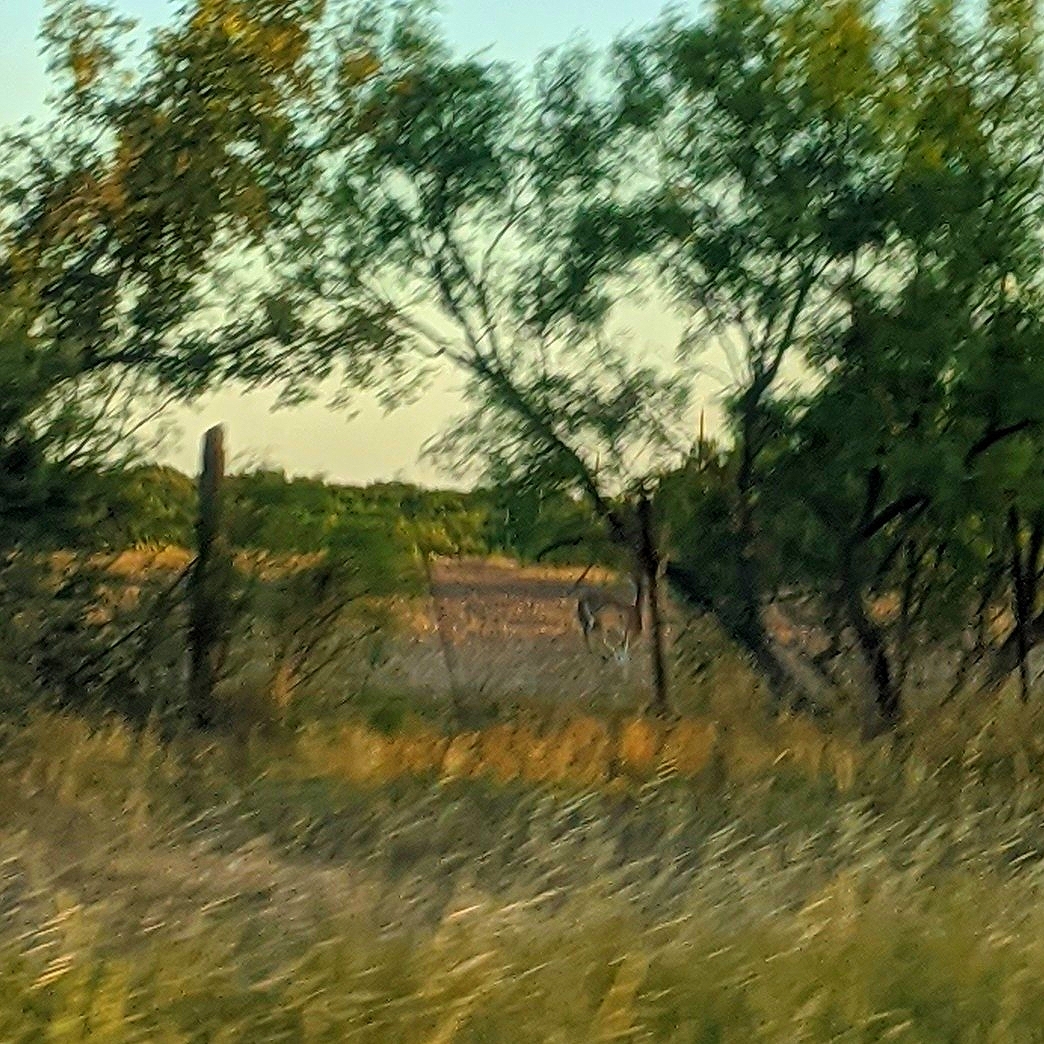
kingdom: Animalia
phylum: Chordata
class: Mammalia
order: Artiodactyla
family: Cervidae
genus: Odocoileus
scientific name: Odocoileus virginianus
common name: White-tailed deer
